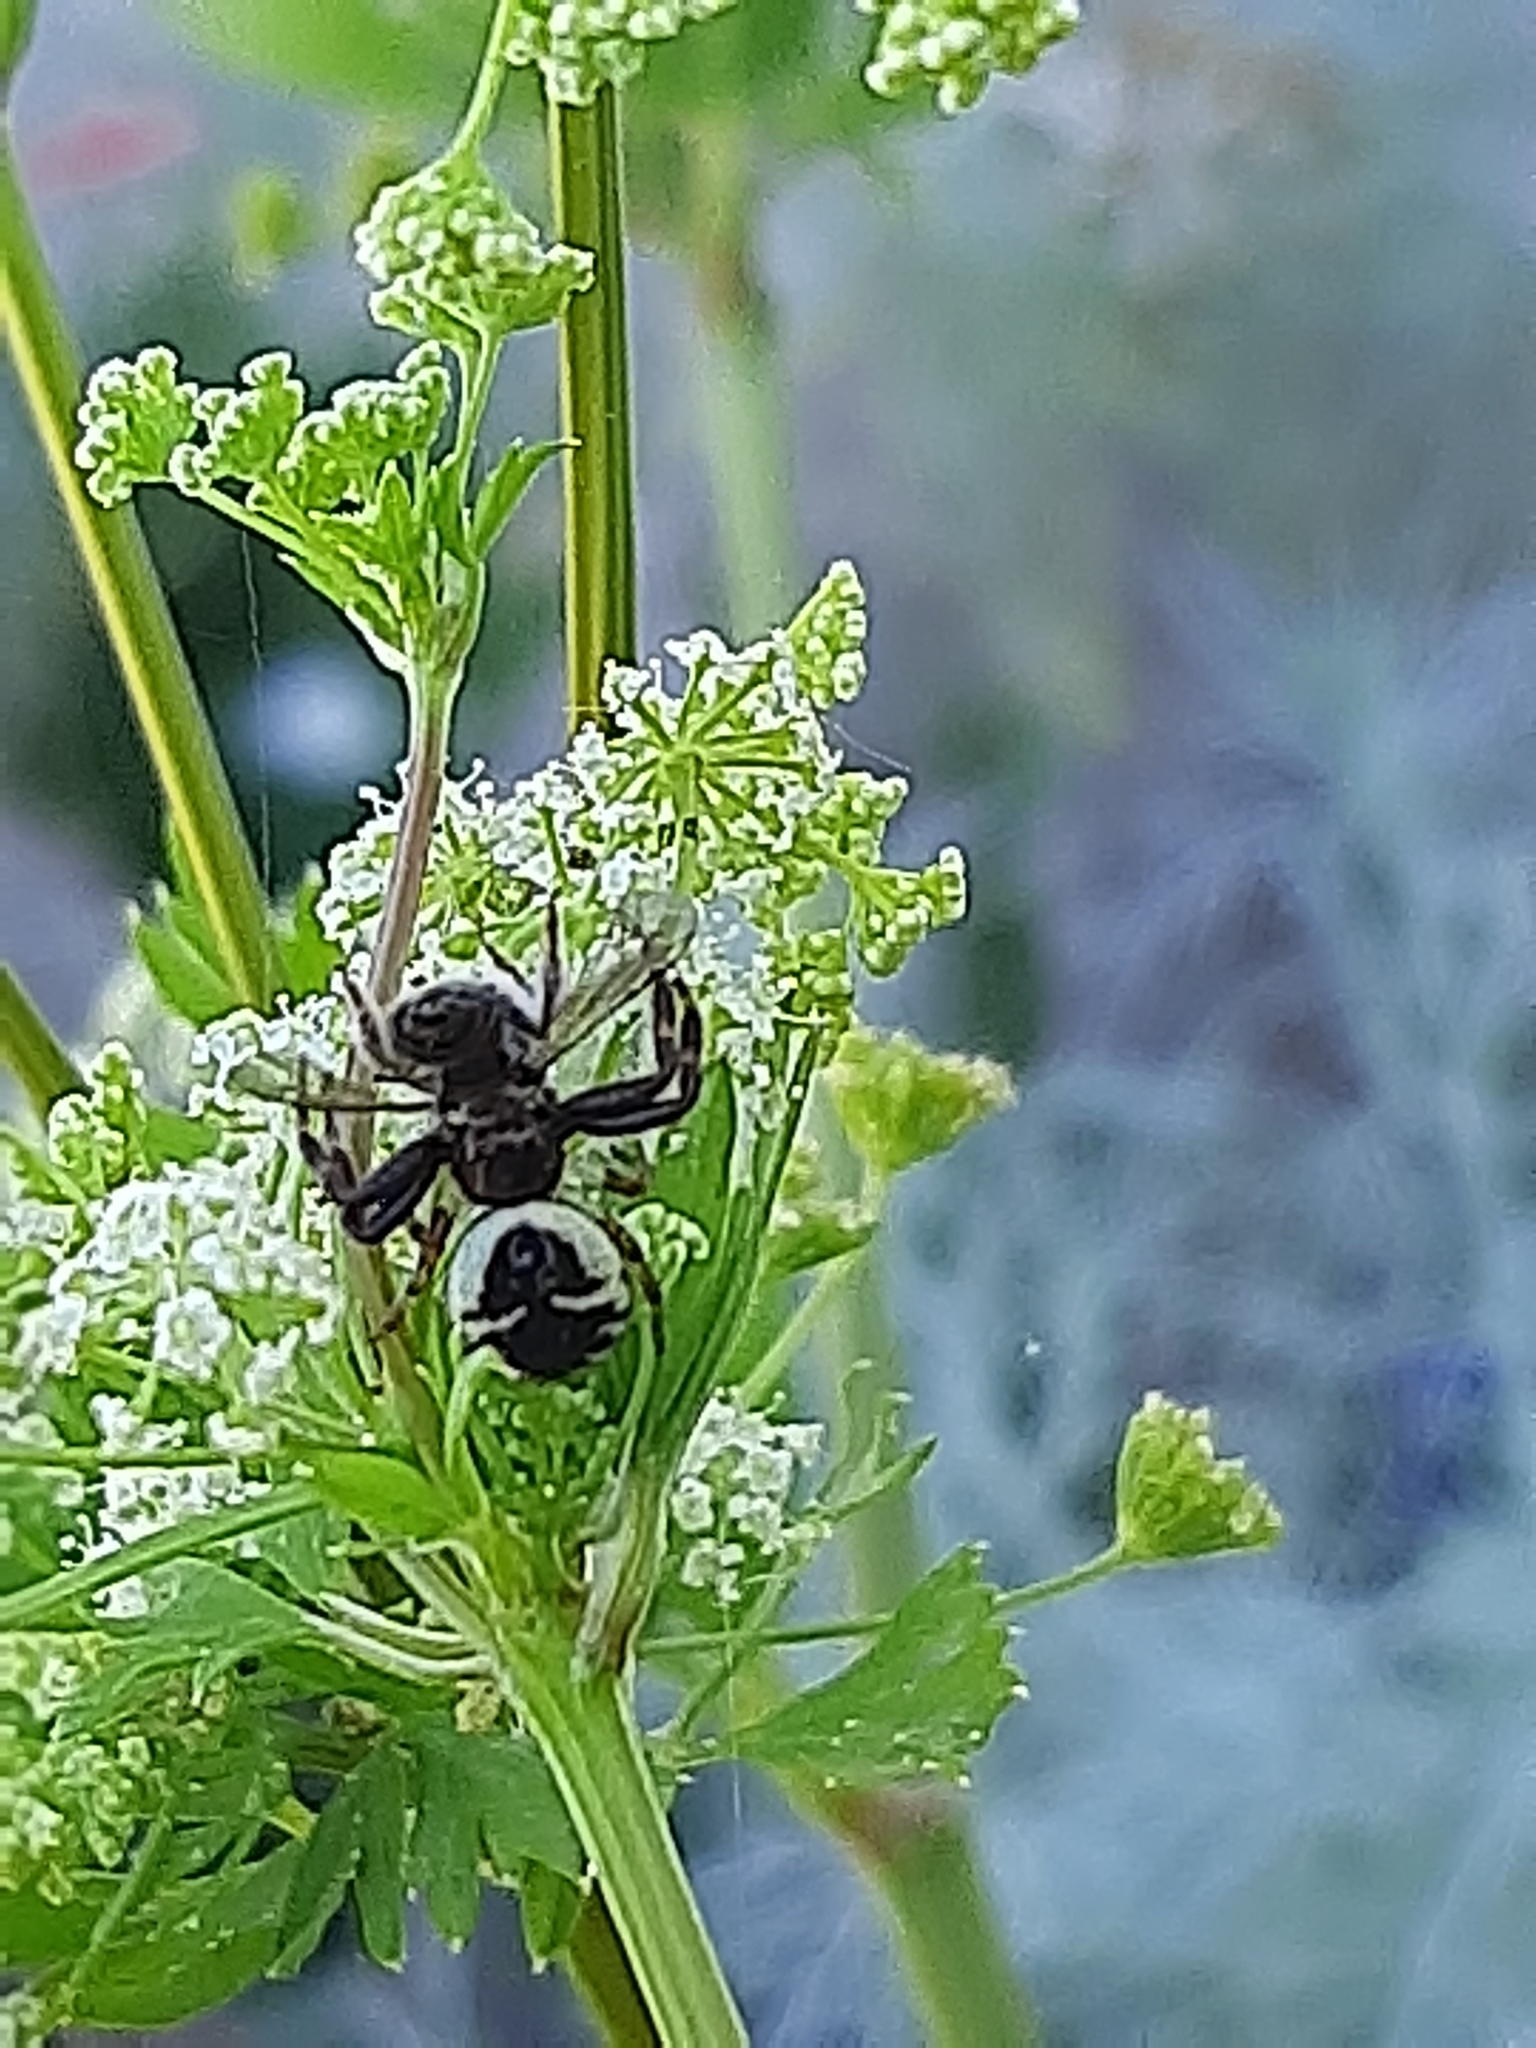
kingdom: Animalia
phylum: Arthropoda
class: Arachnida
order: Araneae
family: Thomisidae
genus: Synema
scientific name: Synema globosum
